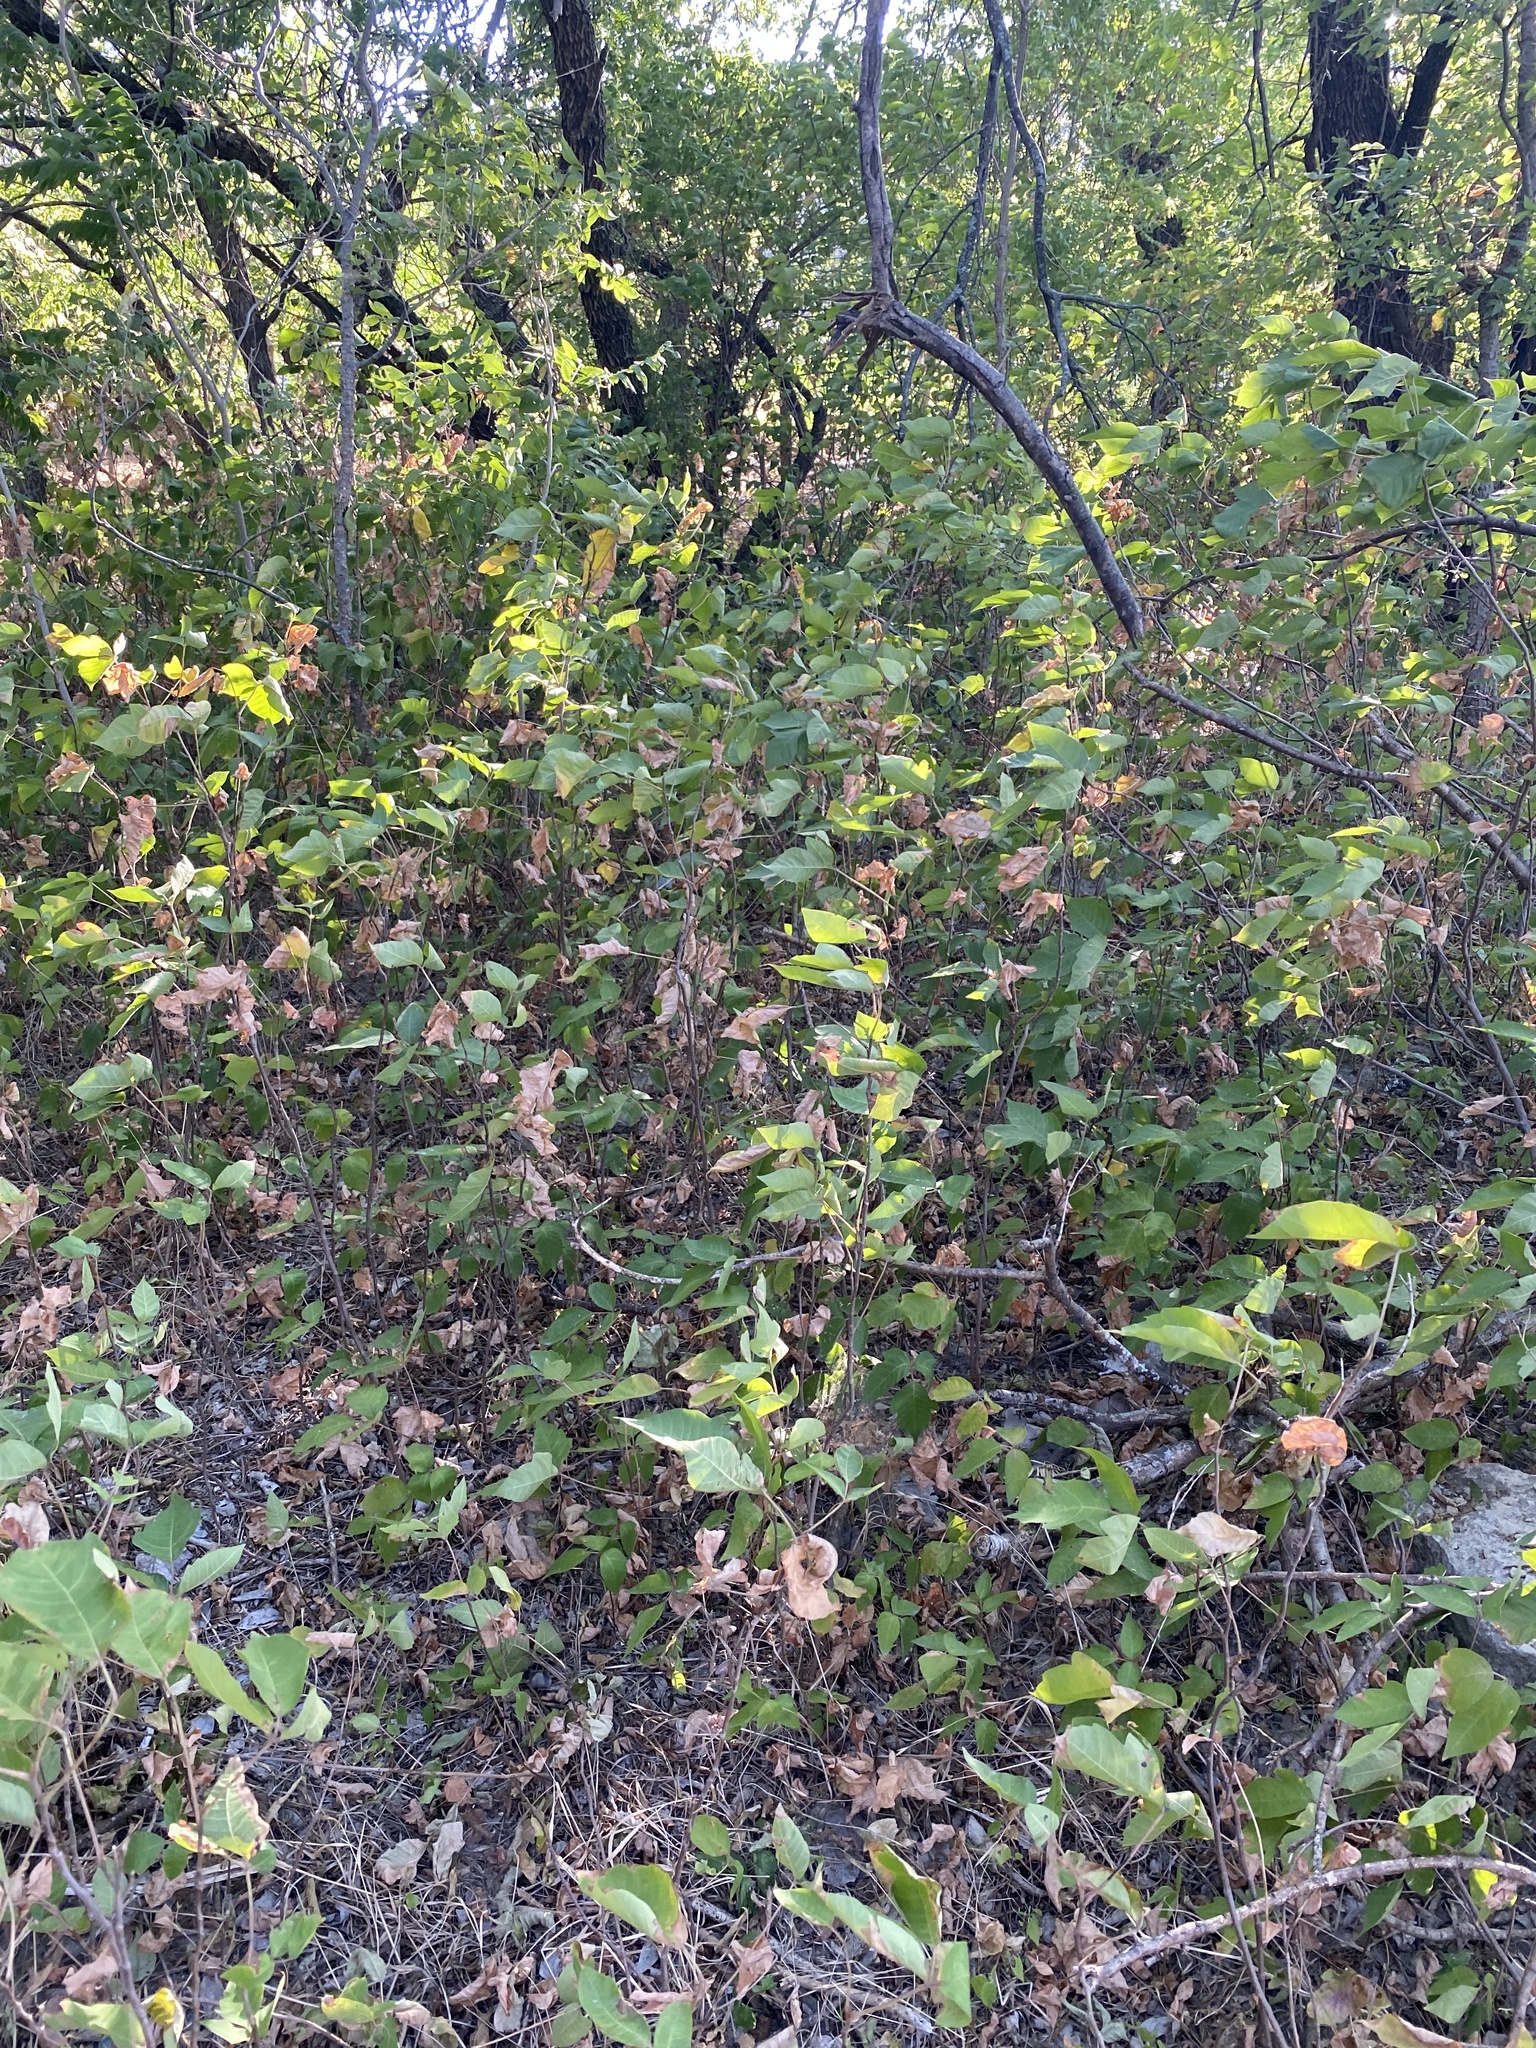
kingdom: Plantae
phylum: Tracheophyta
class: Magnoliopsida
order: Sapindales
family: Anacardiaceae
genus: Toxicodendron
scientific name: Toxicodendron radicans
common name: Poison ivy
